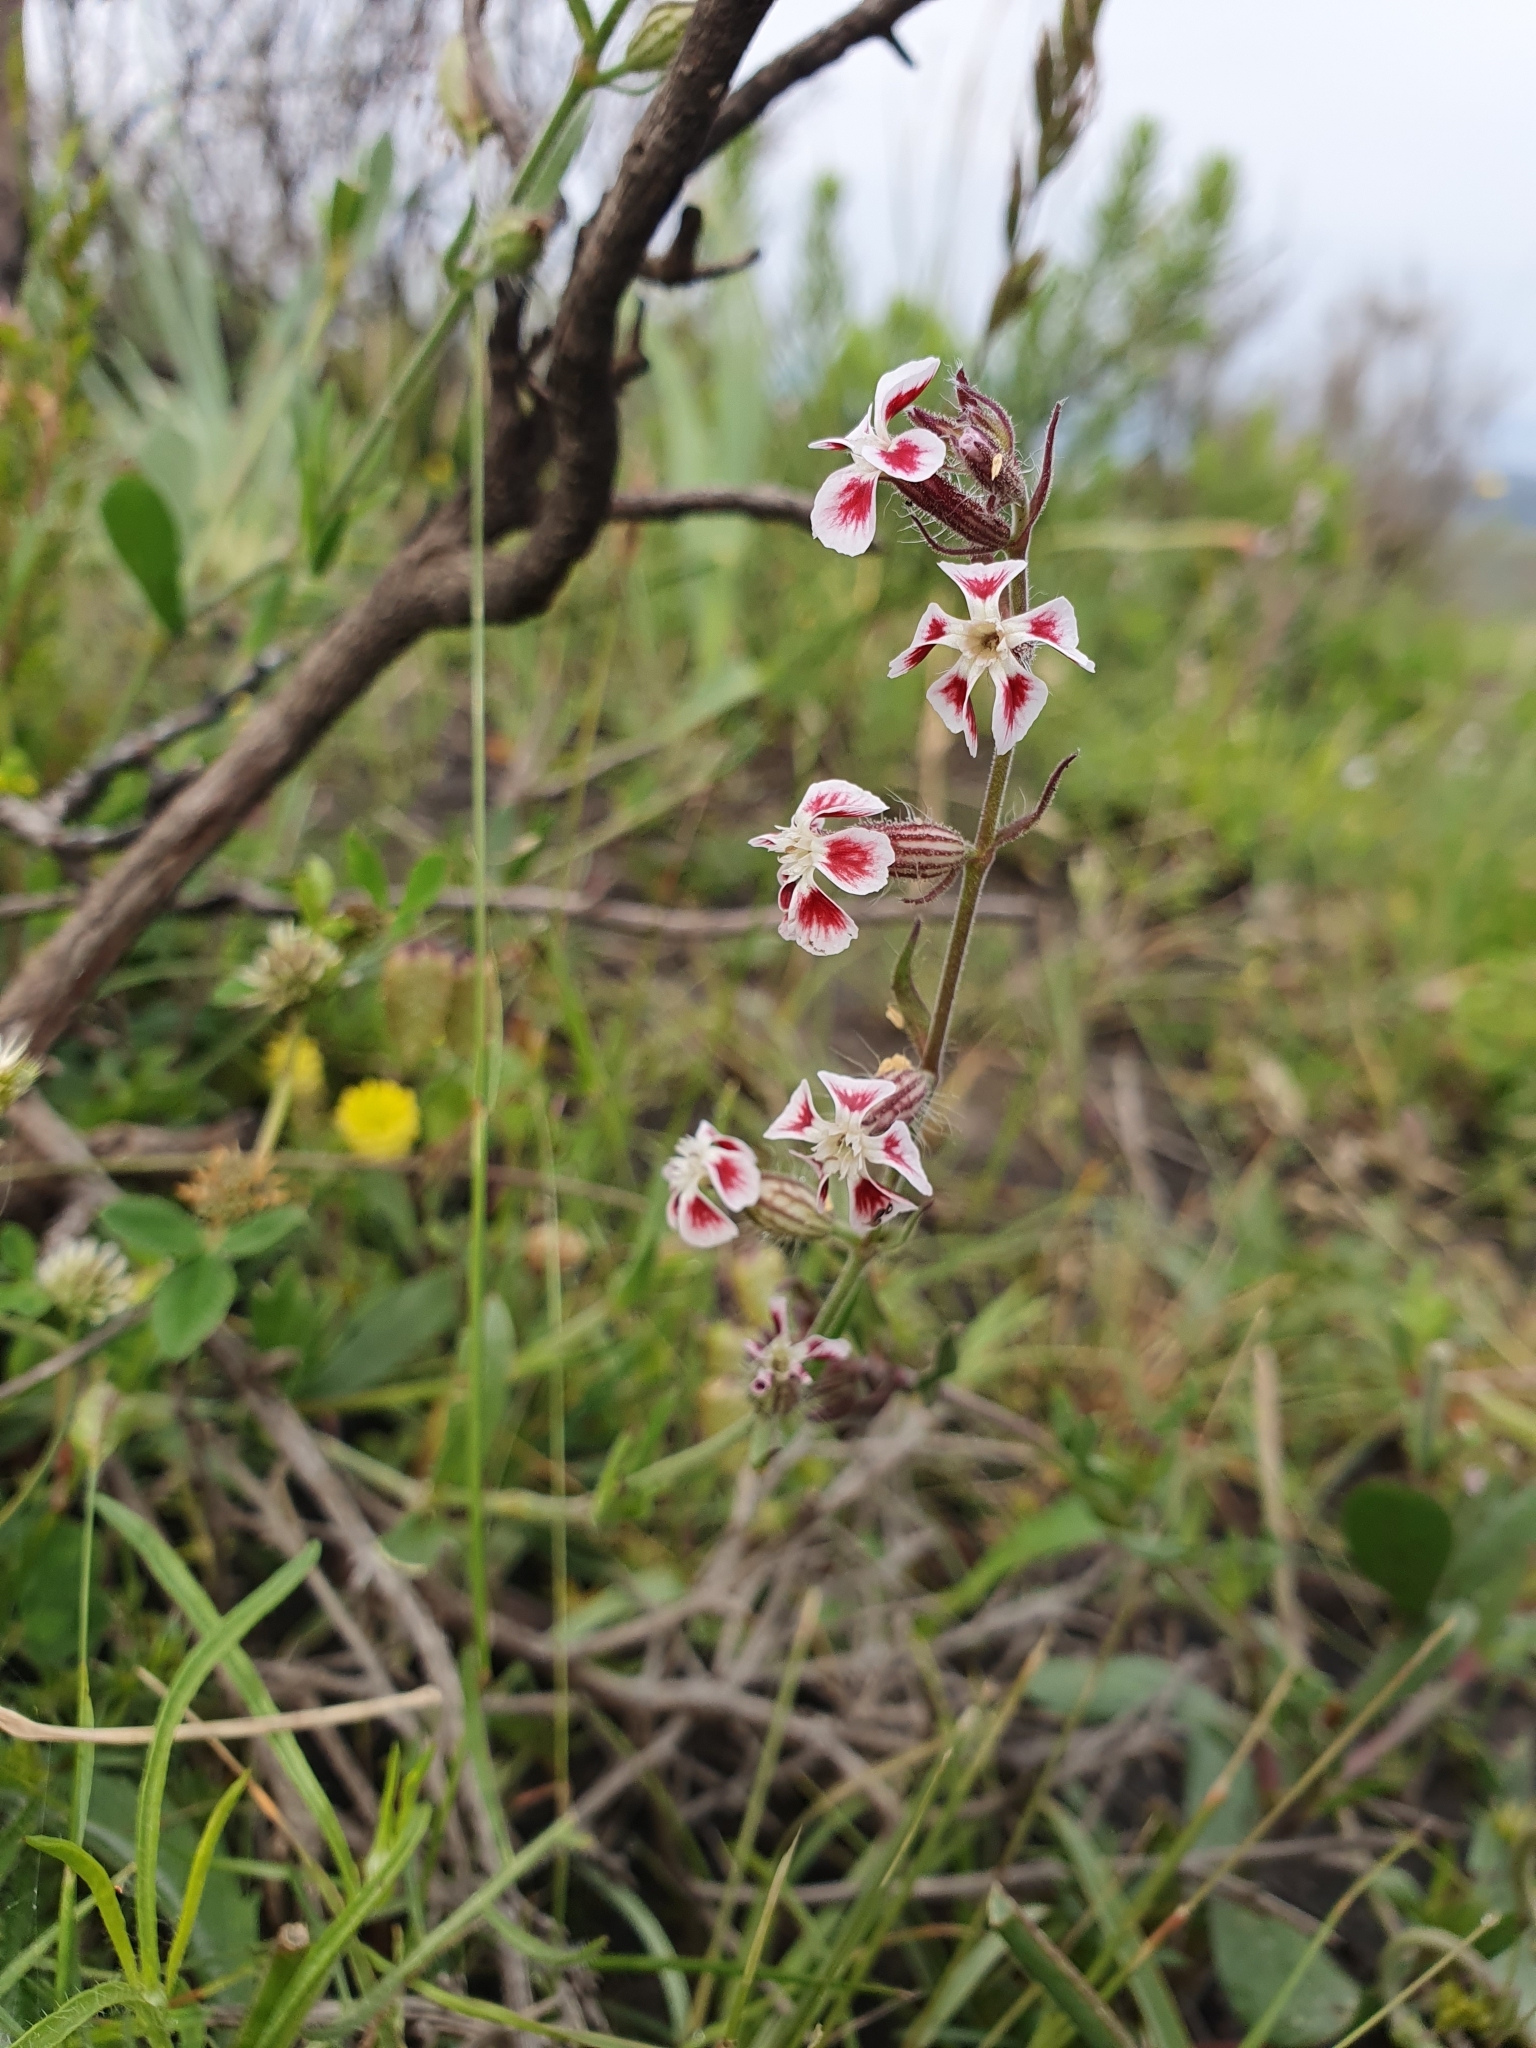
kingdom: Plantae
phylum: Tracheophyta
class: Magnoliopsida
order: Caryophyllales
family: Caryophyllaceae
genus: Silene
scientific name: Silene gallica
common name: Small-flowered catchfly
